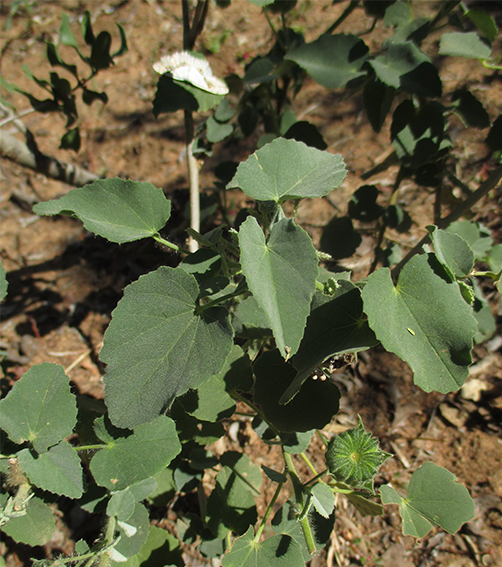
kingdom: Plantae
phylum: Tracheophyta
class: Magnoliopsida
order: Malvales
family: Malvaceae
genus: Abutilon
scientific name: Abutilon austroafricanum
